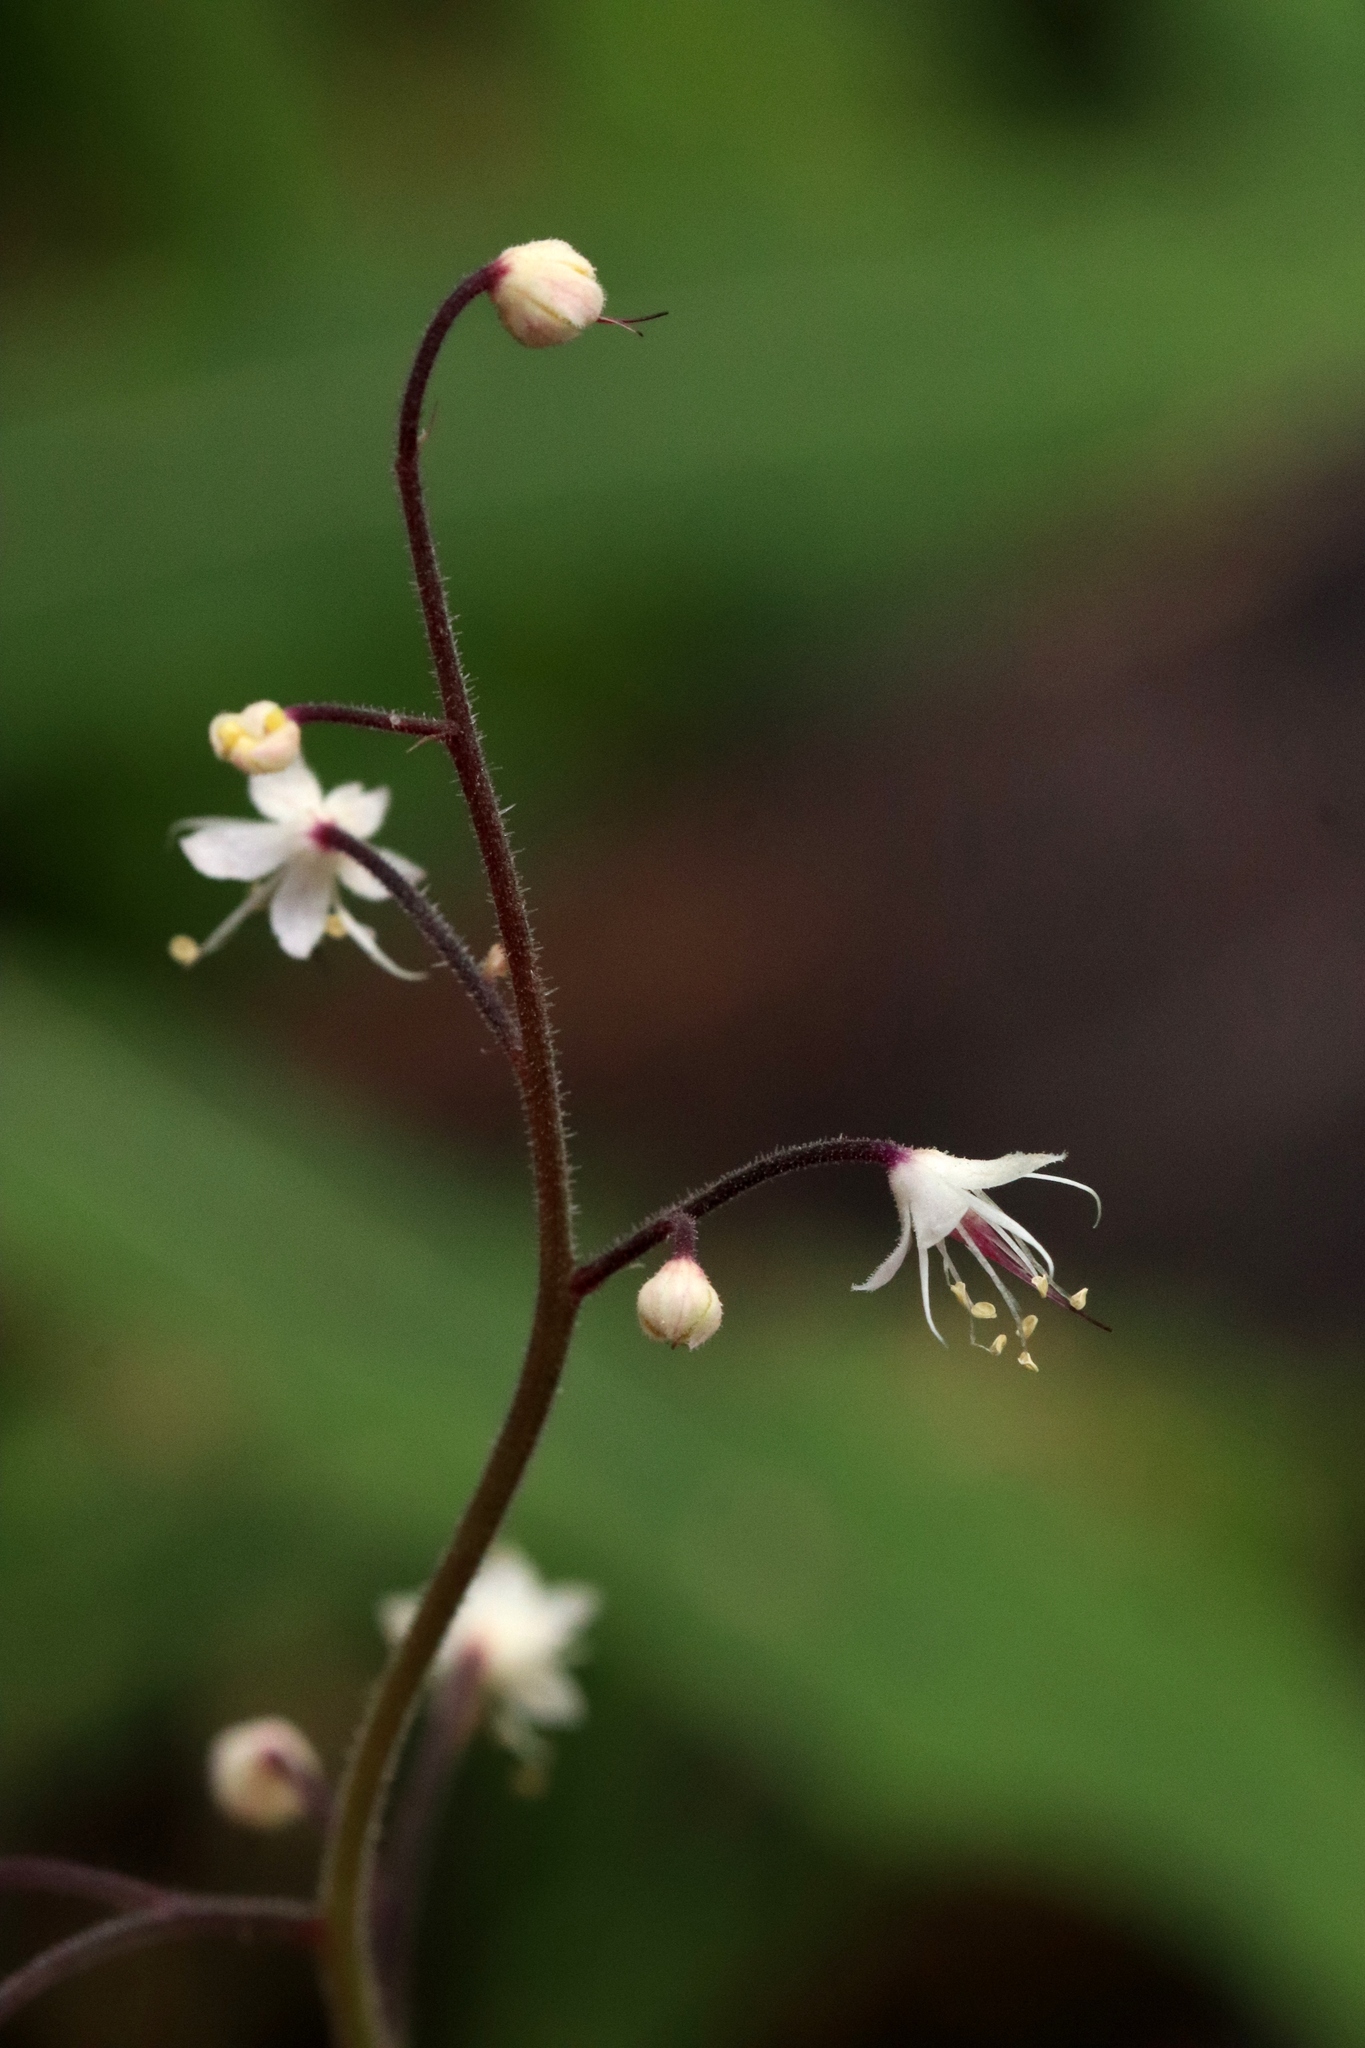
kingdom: Plantae
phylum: Tracheophyta
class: Magnoliopsida
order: Saxifragales
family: Saxifragaceae
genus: Tiarella
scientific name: Tiarella trifoliata
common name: Sugar-scoop
